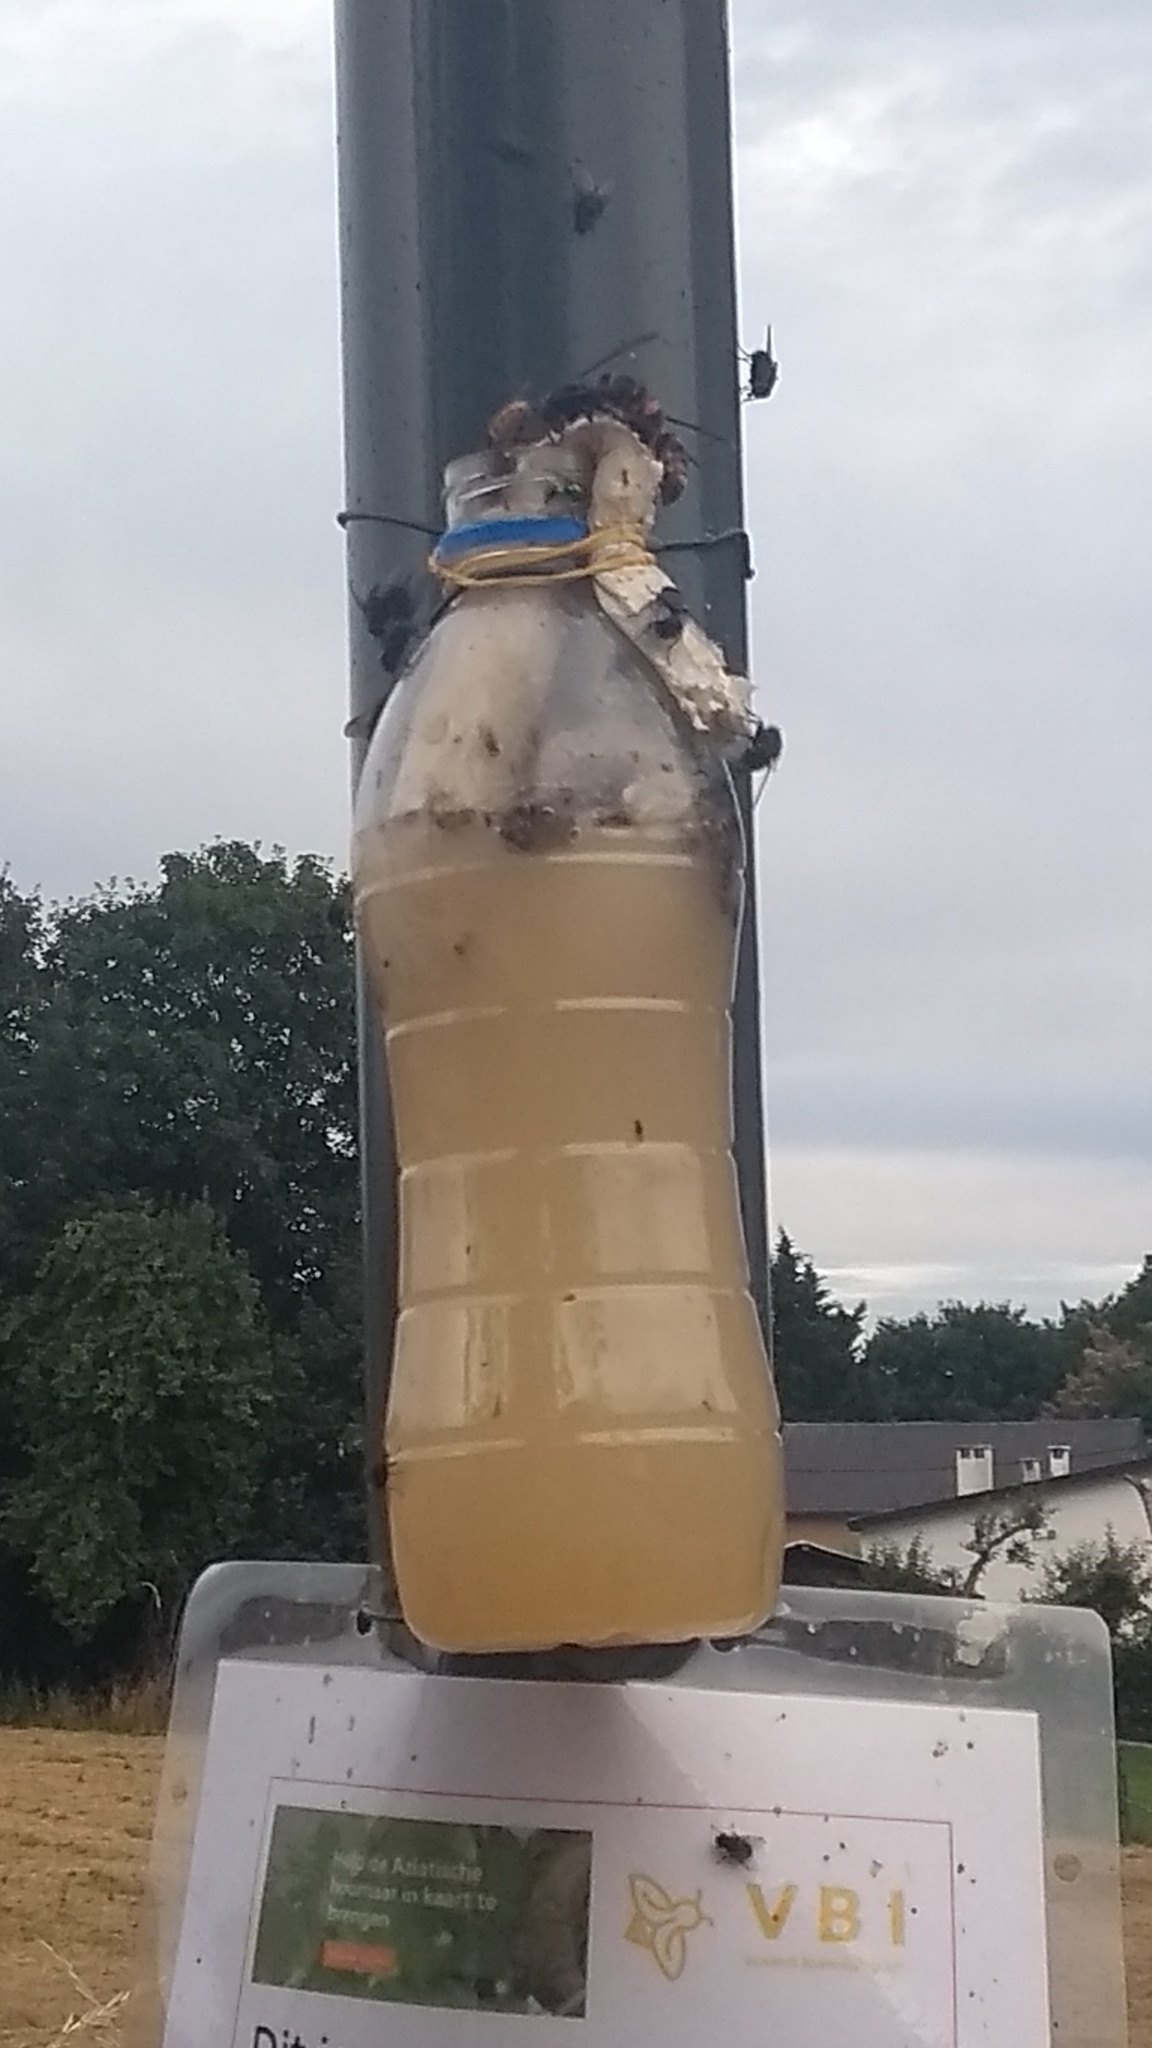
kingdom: Animalia
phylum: Arthropoda
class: Insecta
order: Hymenoptera
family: Vespidae
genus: Vespa
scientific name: Vespa velutina
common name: Asian hornet
